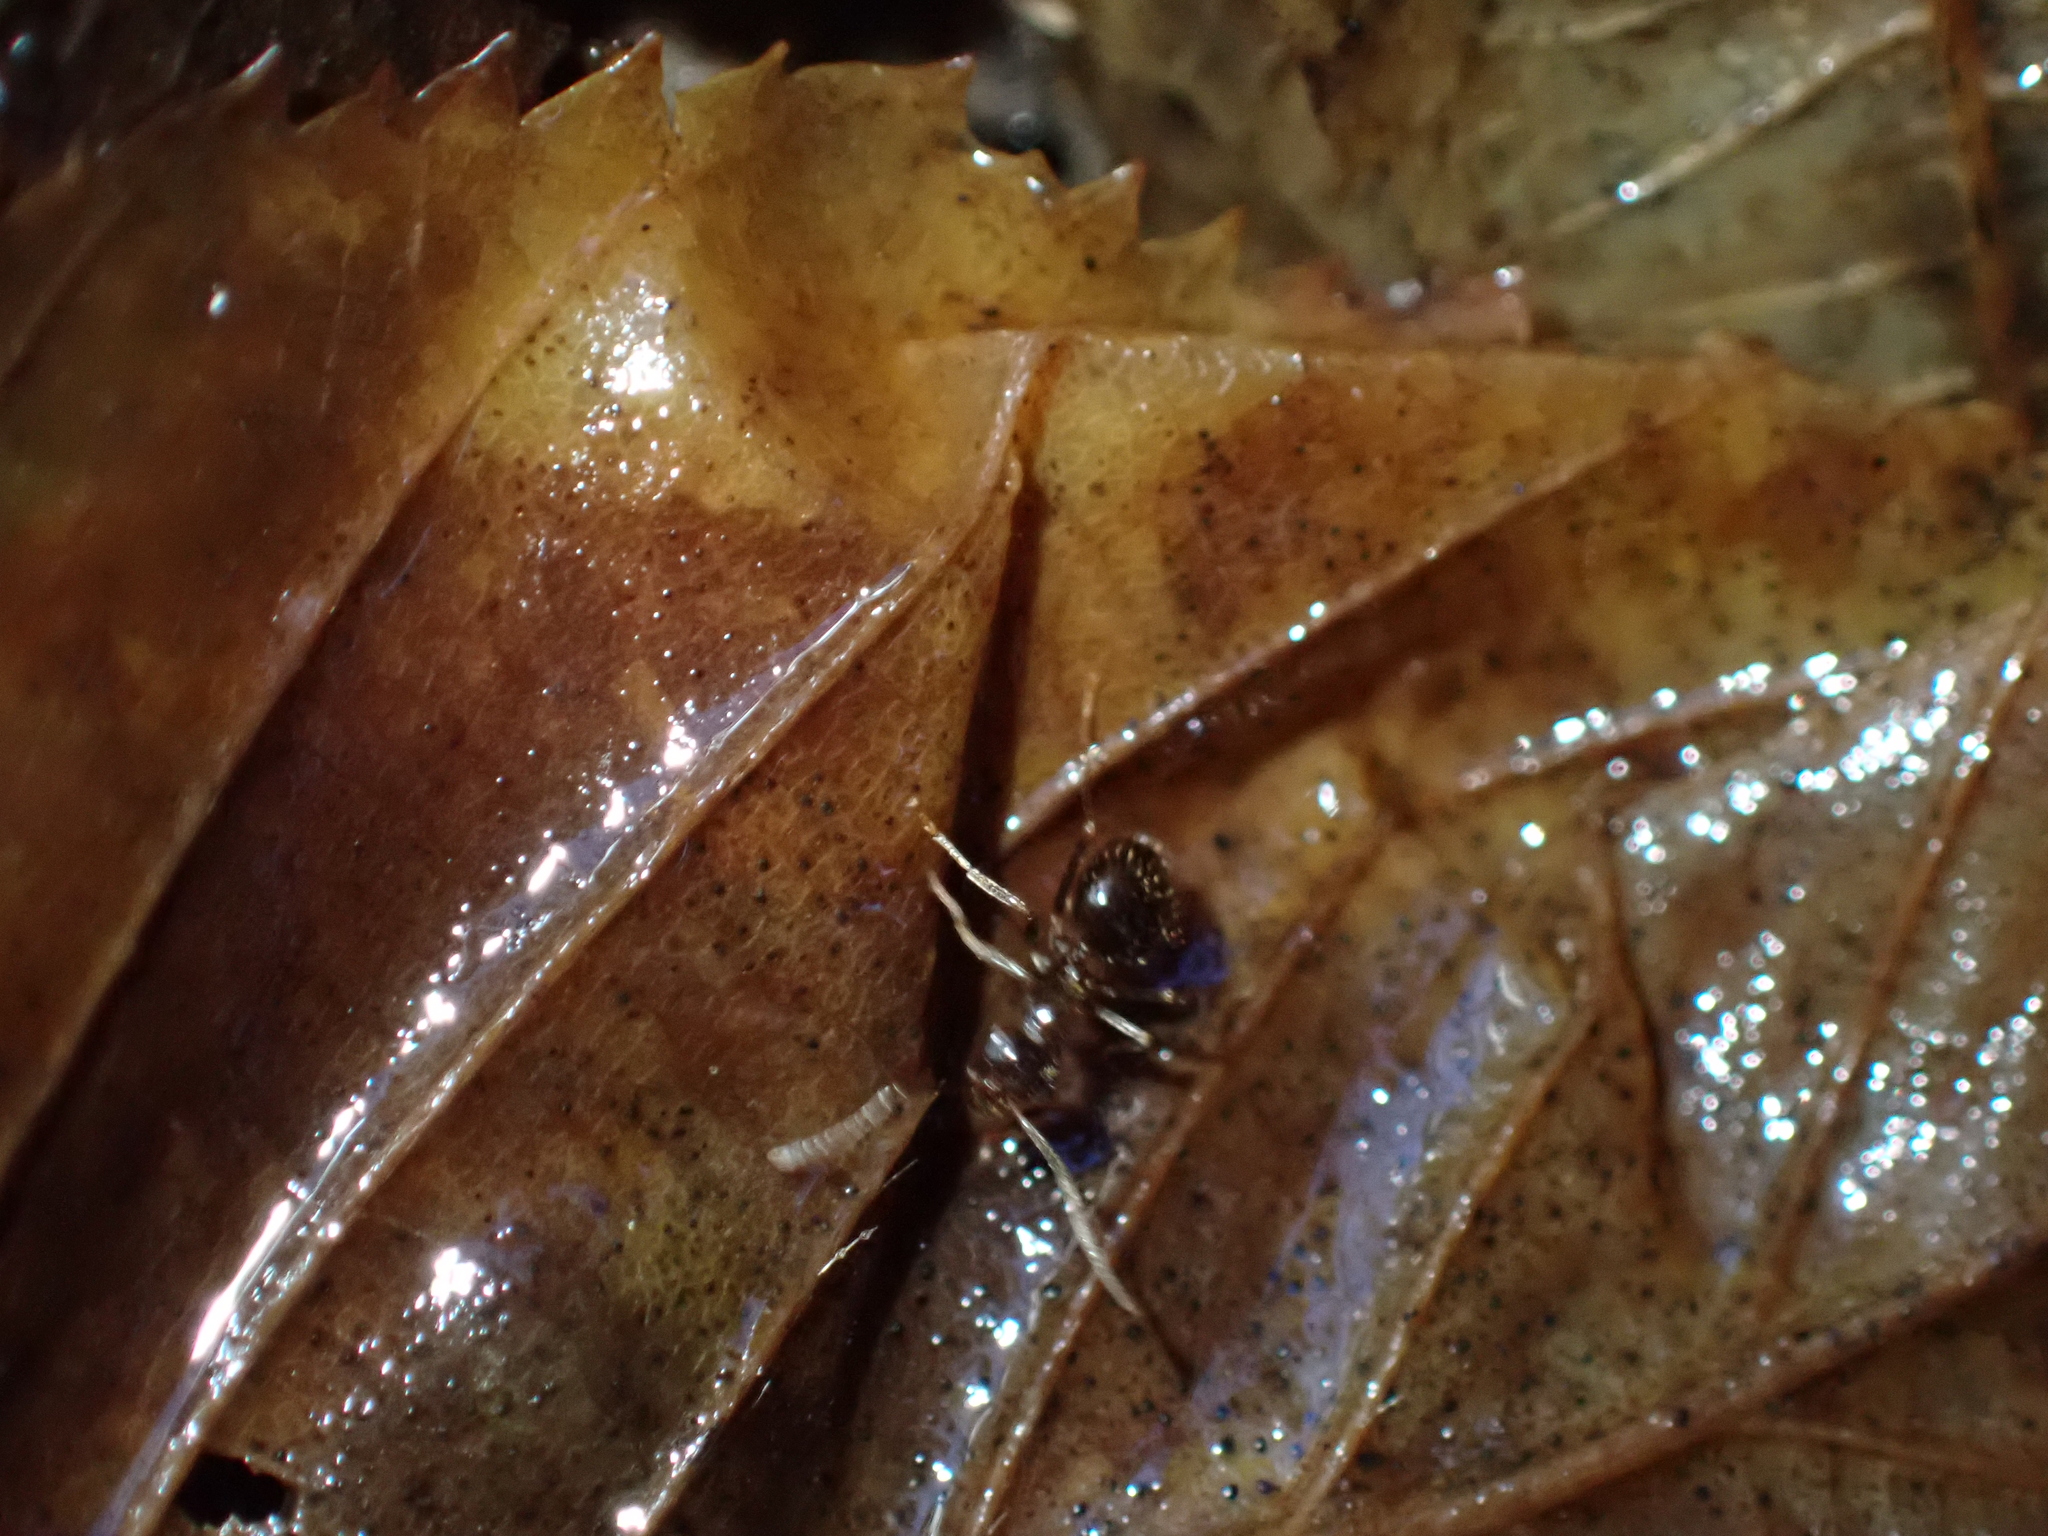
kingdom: Animalia
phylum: Arthropoda
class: Insecta
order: Hymenoptera
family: Formicidae
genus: Prenolepis
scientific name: Prenolepis nitens
